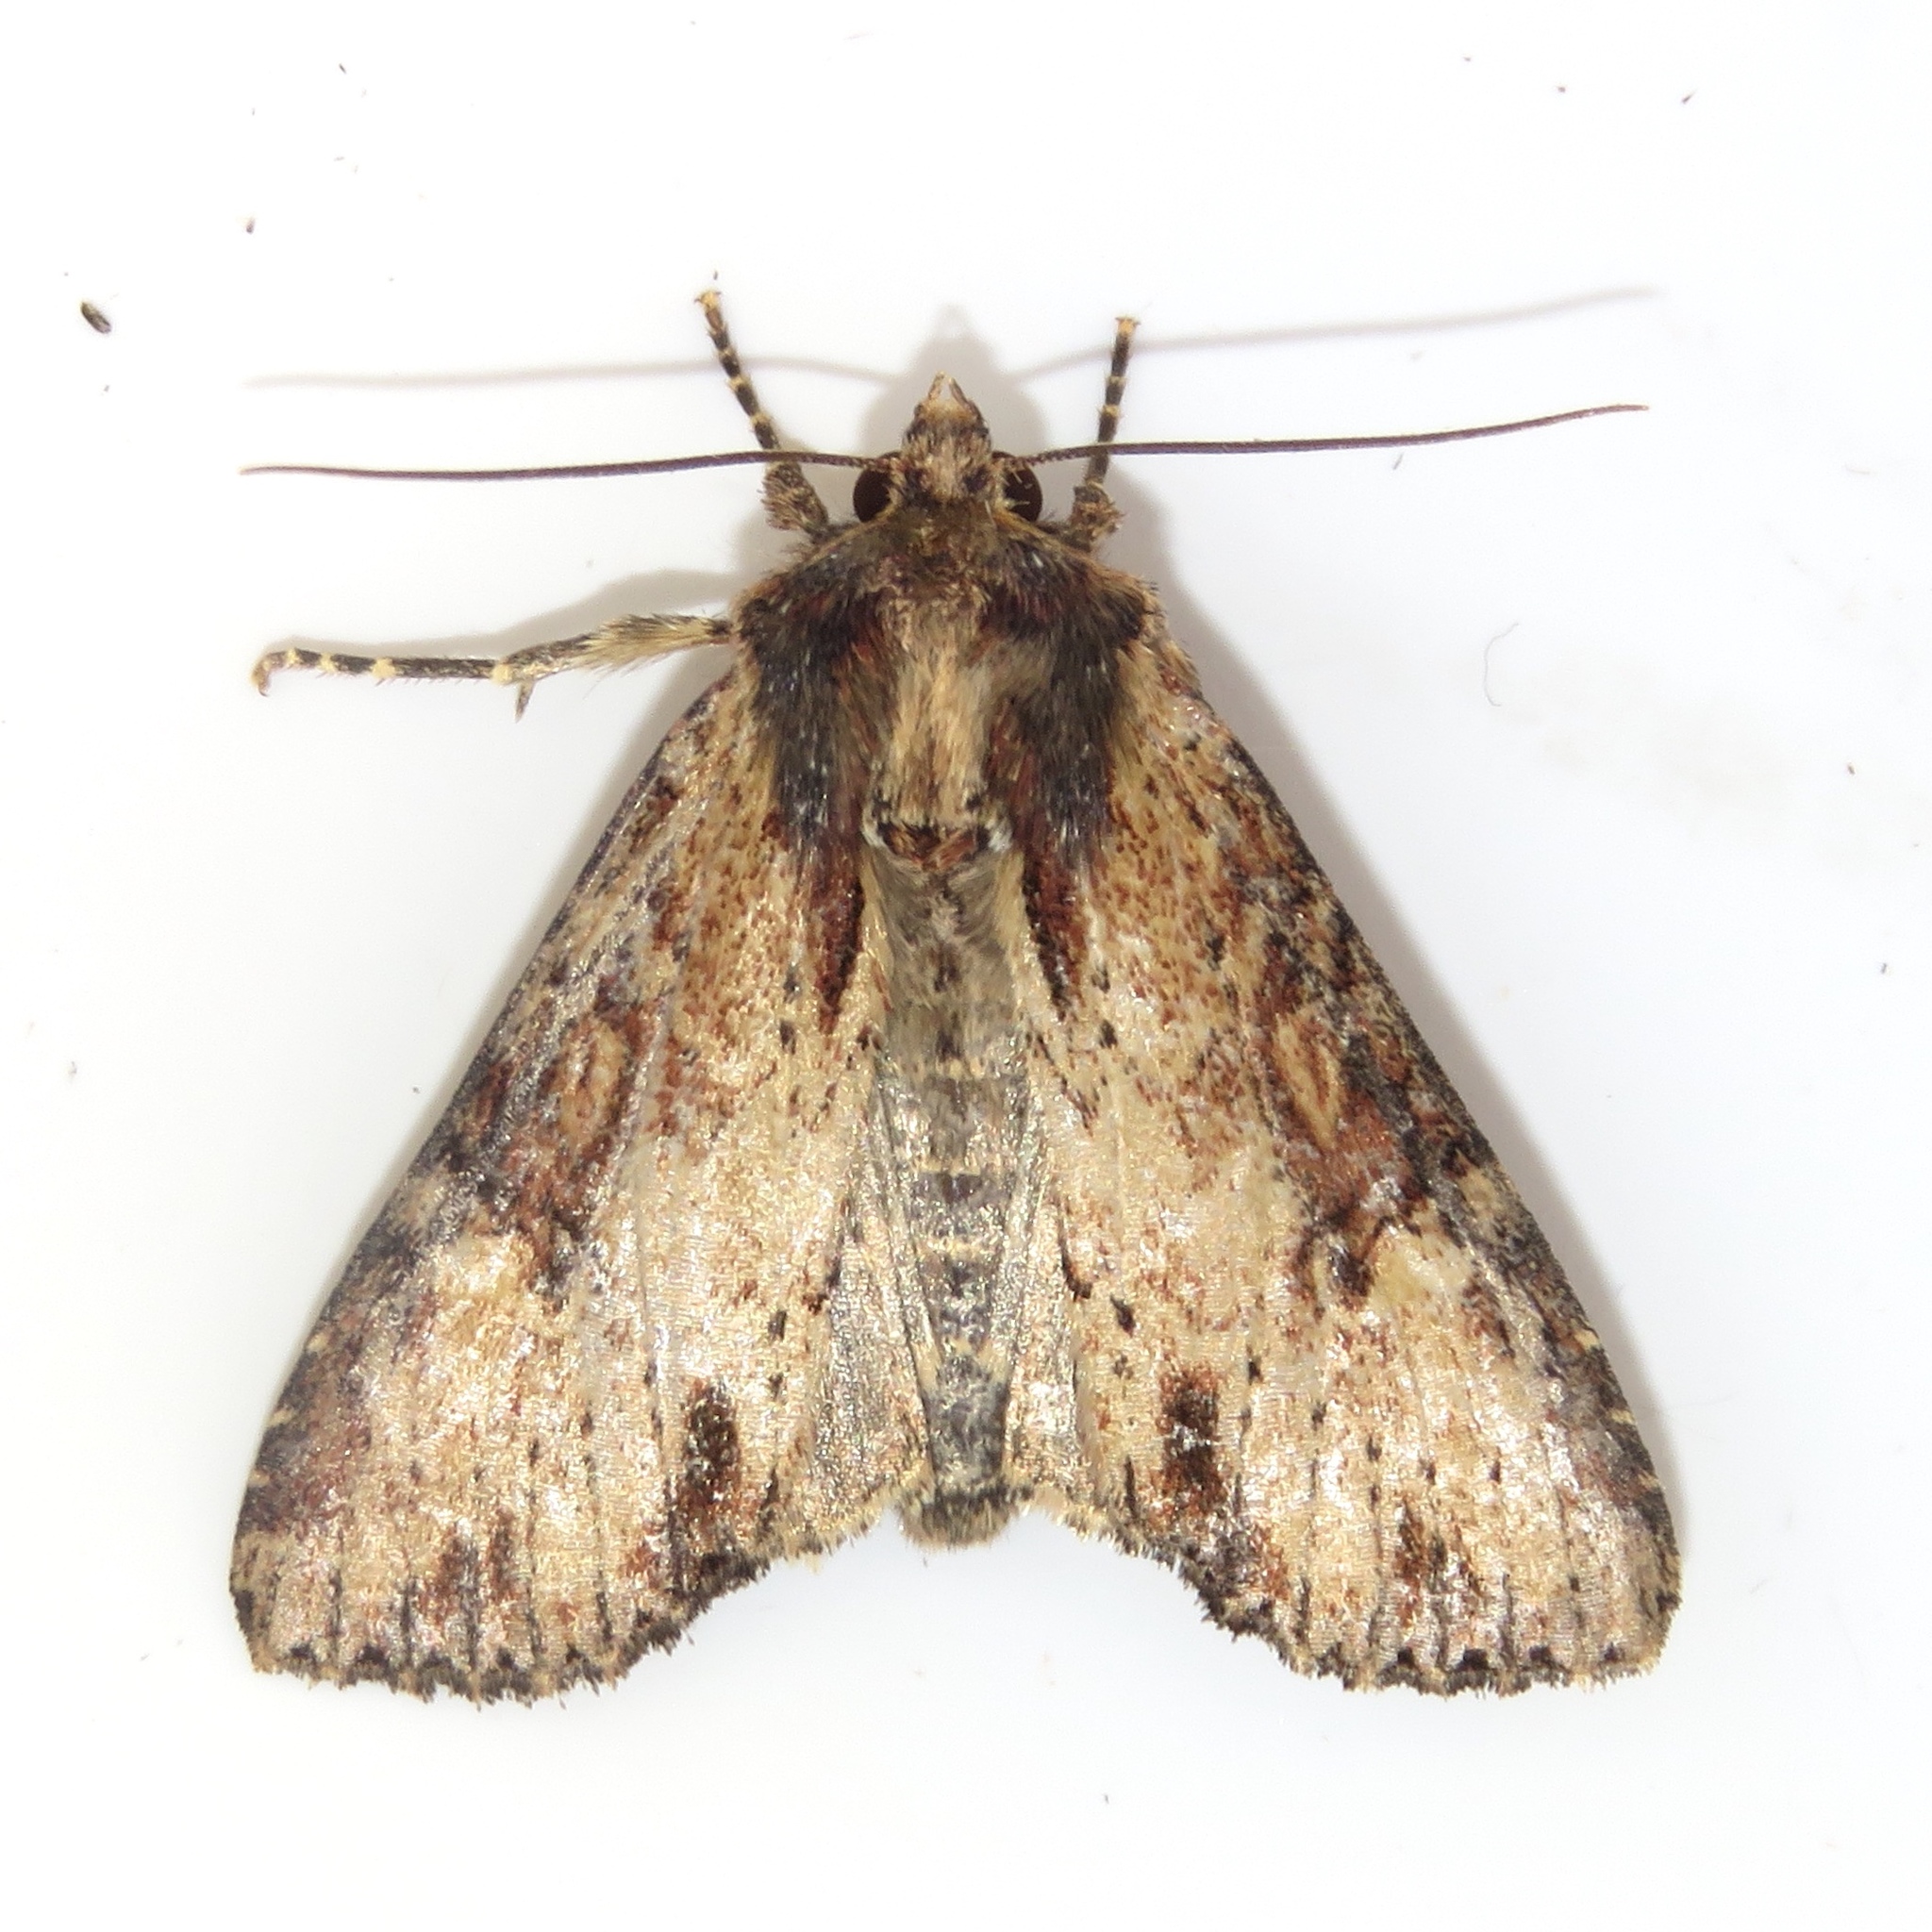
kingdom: Animalia
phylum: Arthropoda
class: Insecta
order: Lepidoptera
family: Noctuidae
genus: Apamea
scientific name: Apamea vultuosa
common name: Airy apamea moth
